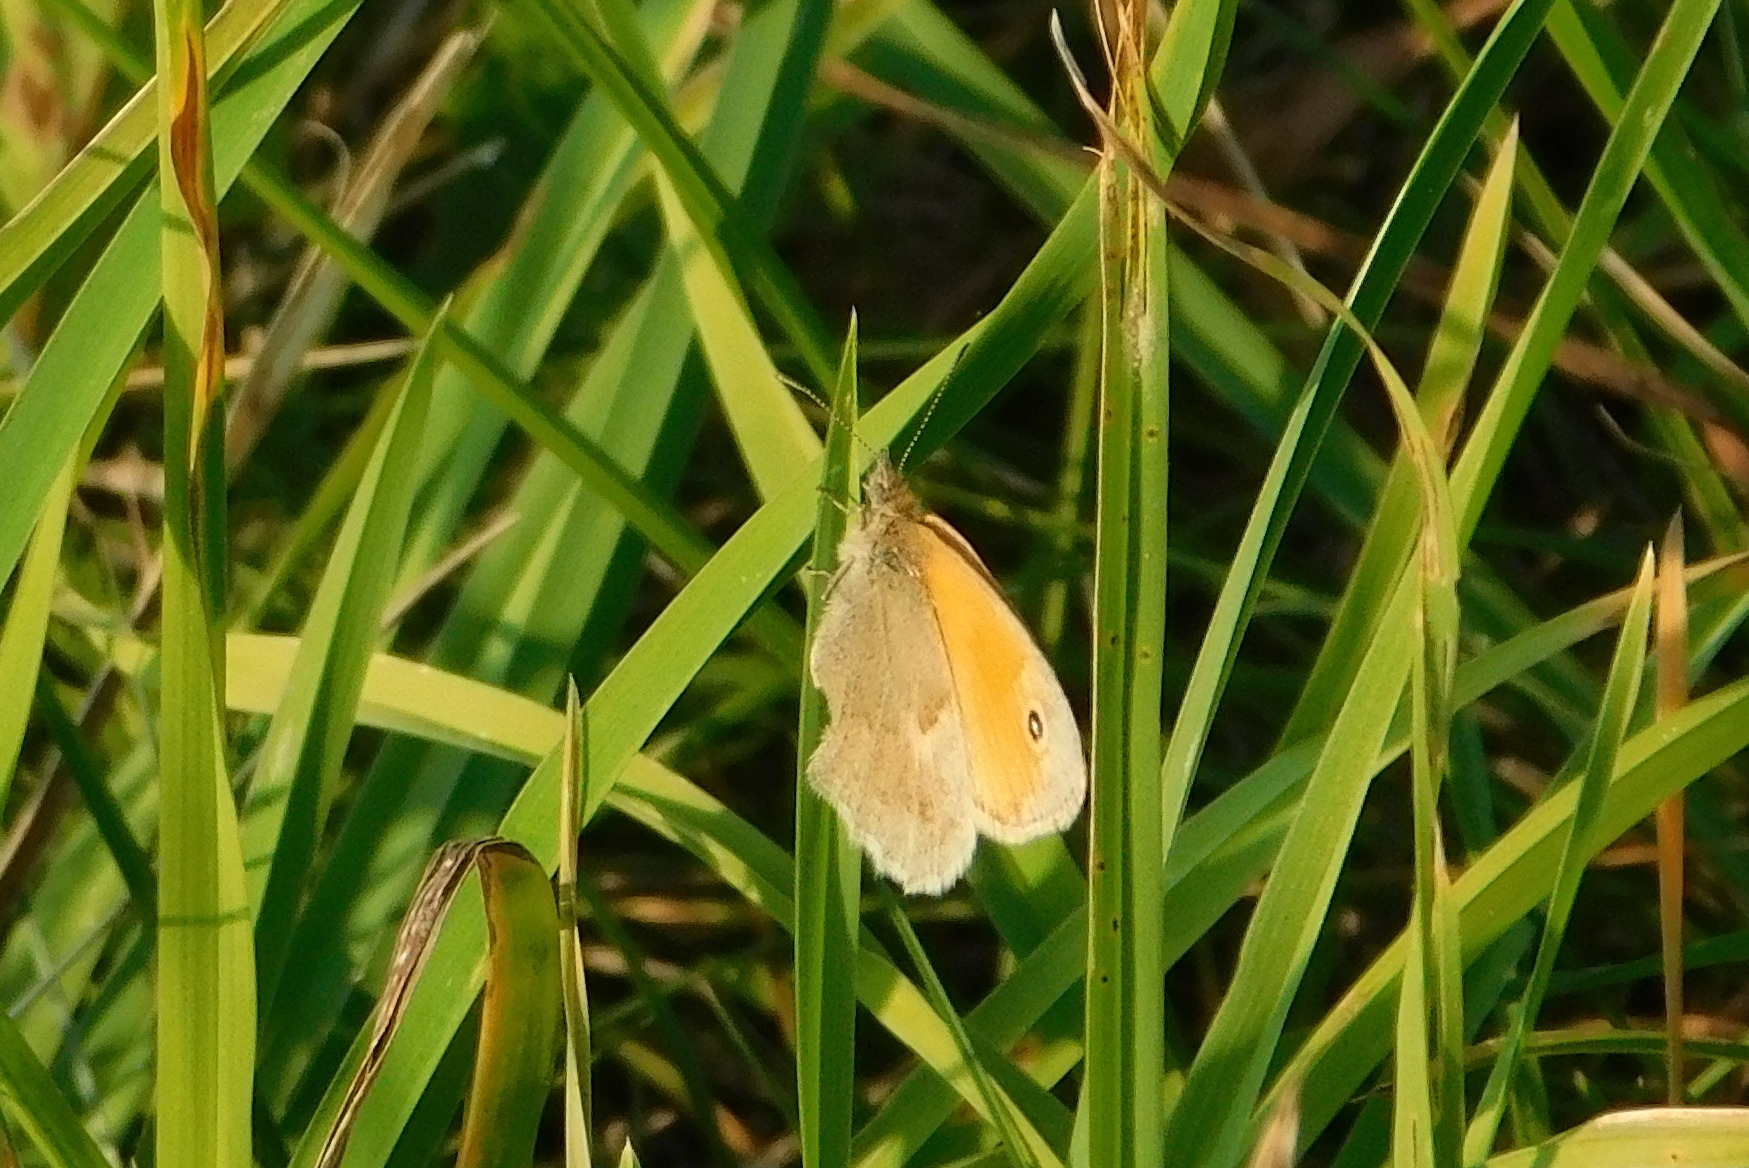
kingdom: Animalia
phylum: Arthropoda
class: Insecta
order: Lepidoptera
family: Nymphalidae
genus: Coenonympha
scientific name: Coenonympha pamphilus
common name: Small heath
